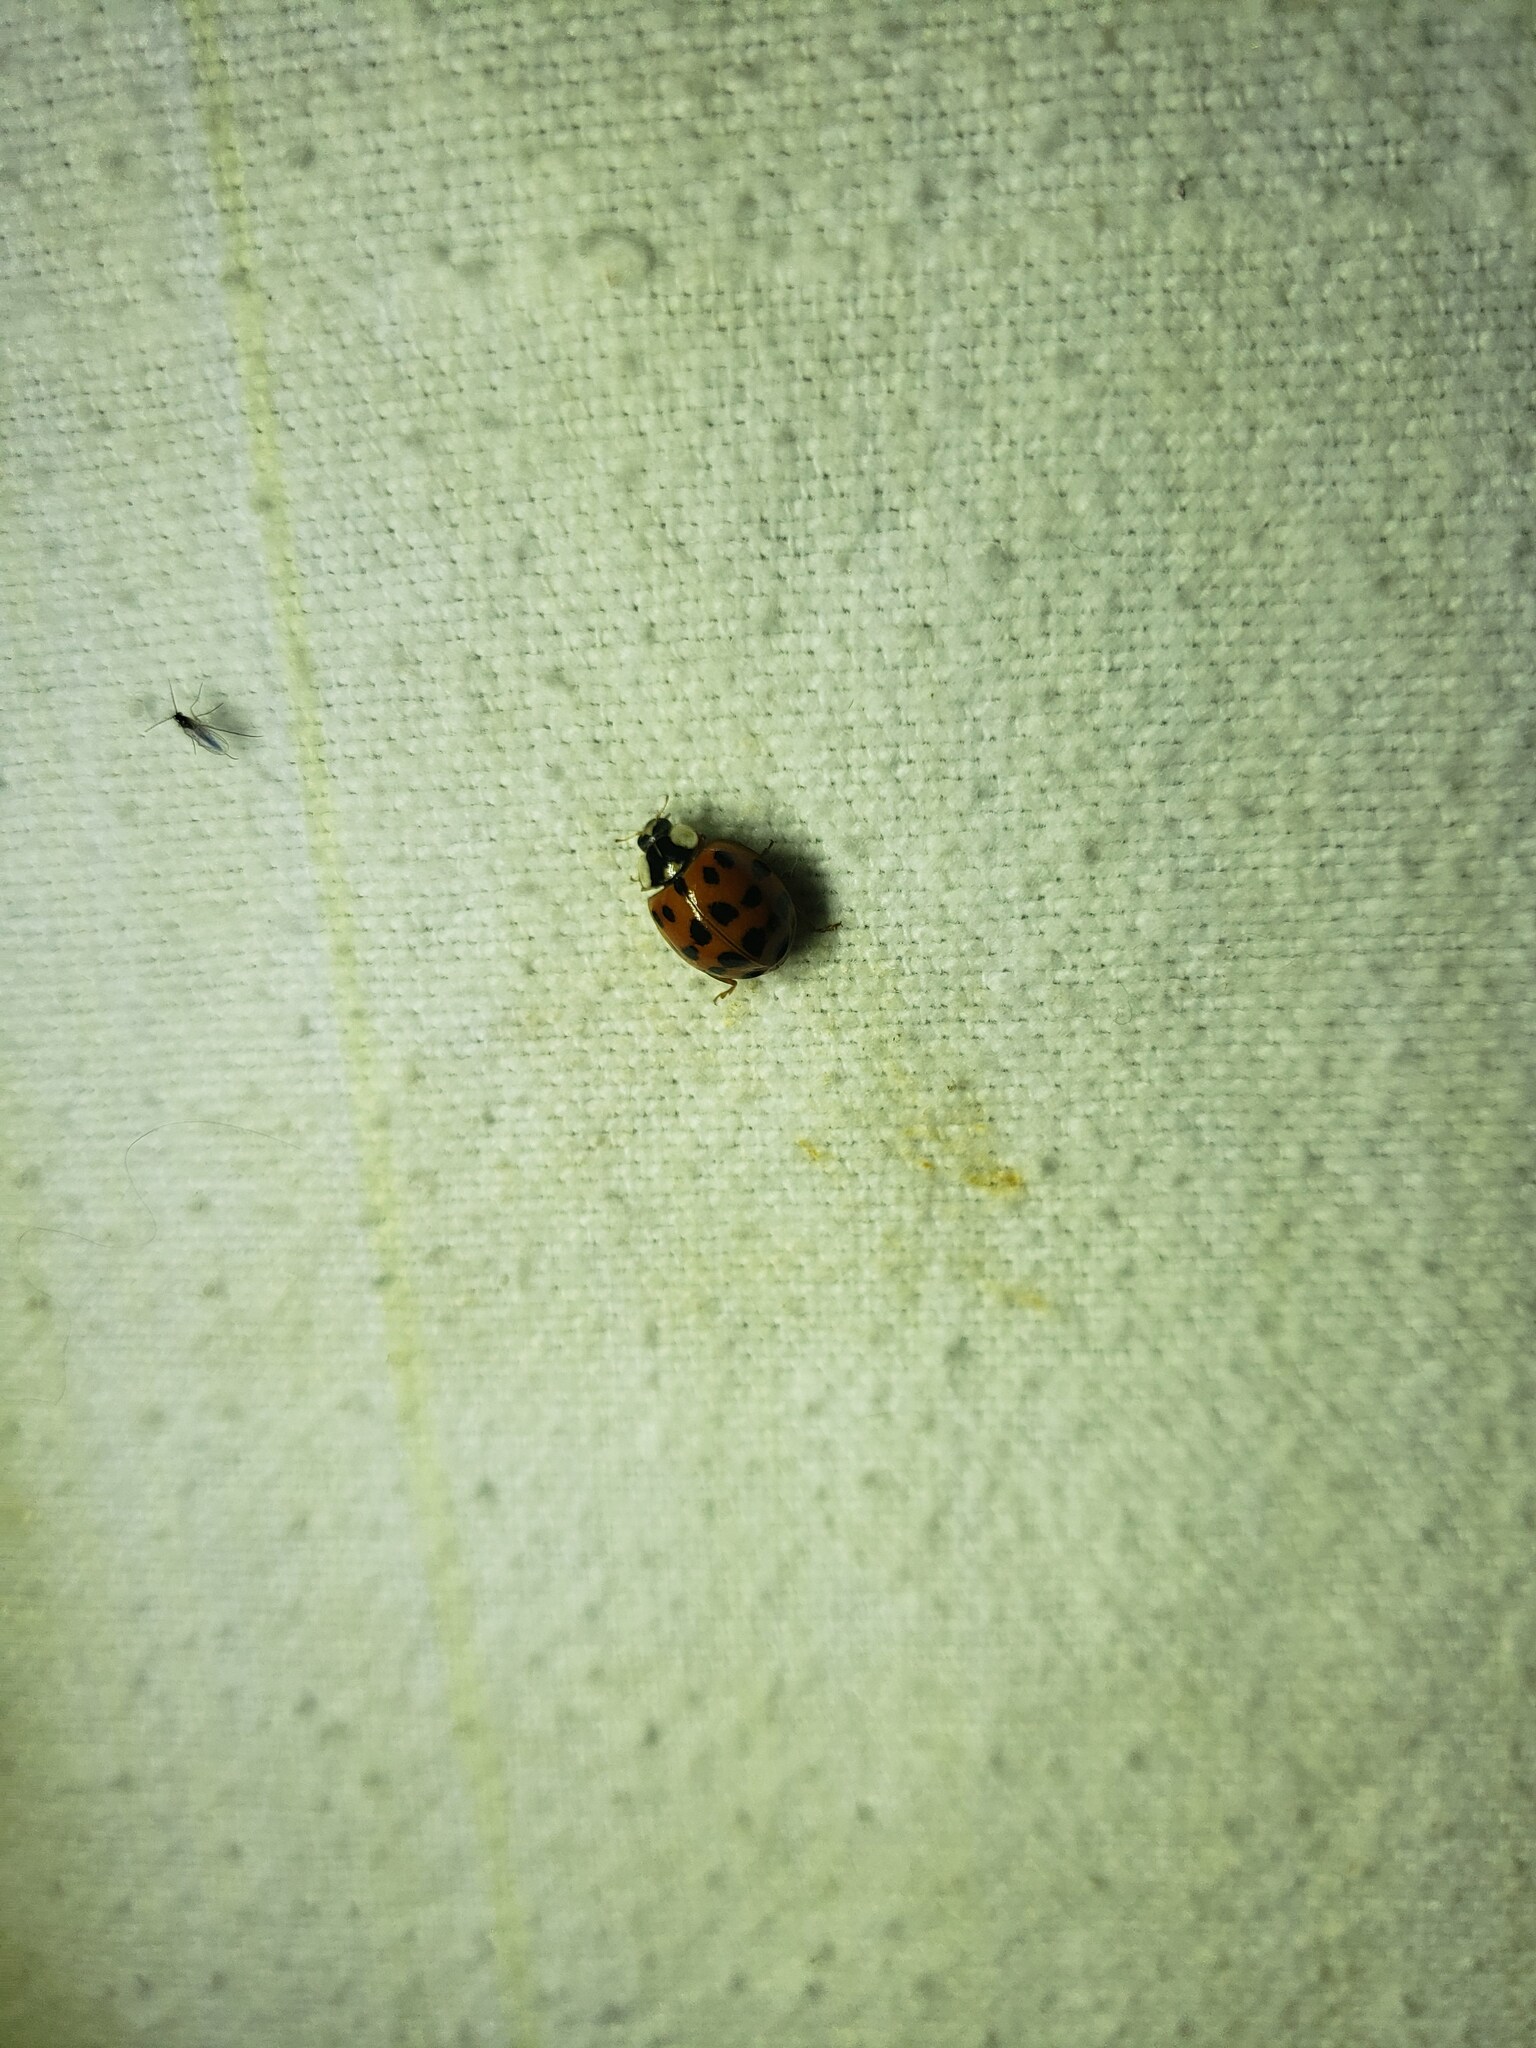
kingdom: Animalia
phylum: Arthropoda
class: Insecta
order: Coleoptera
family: Coccinellidae
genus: Harmonia
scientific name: Harmonia axyridis
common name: Harlequin ladybird
